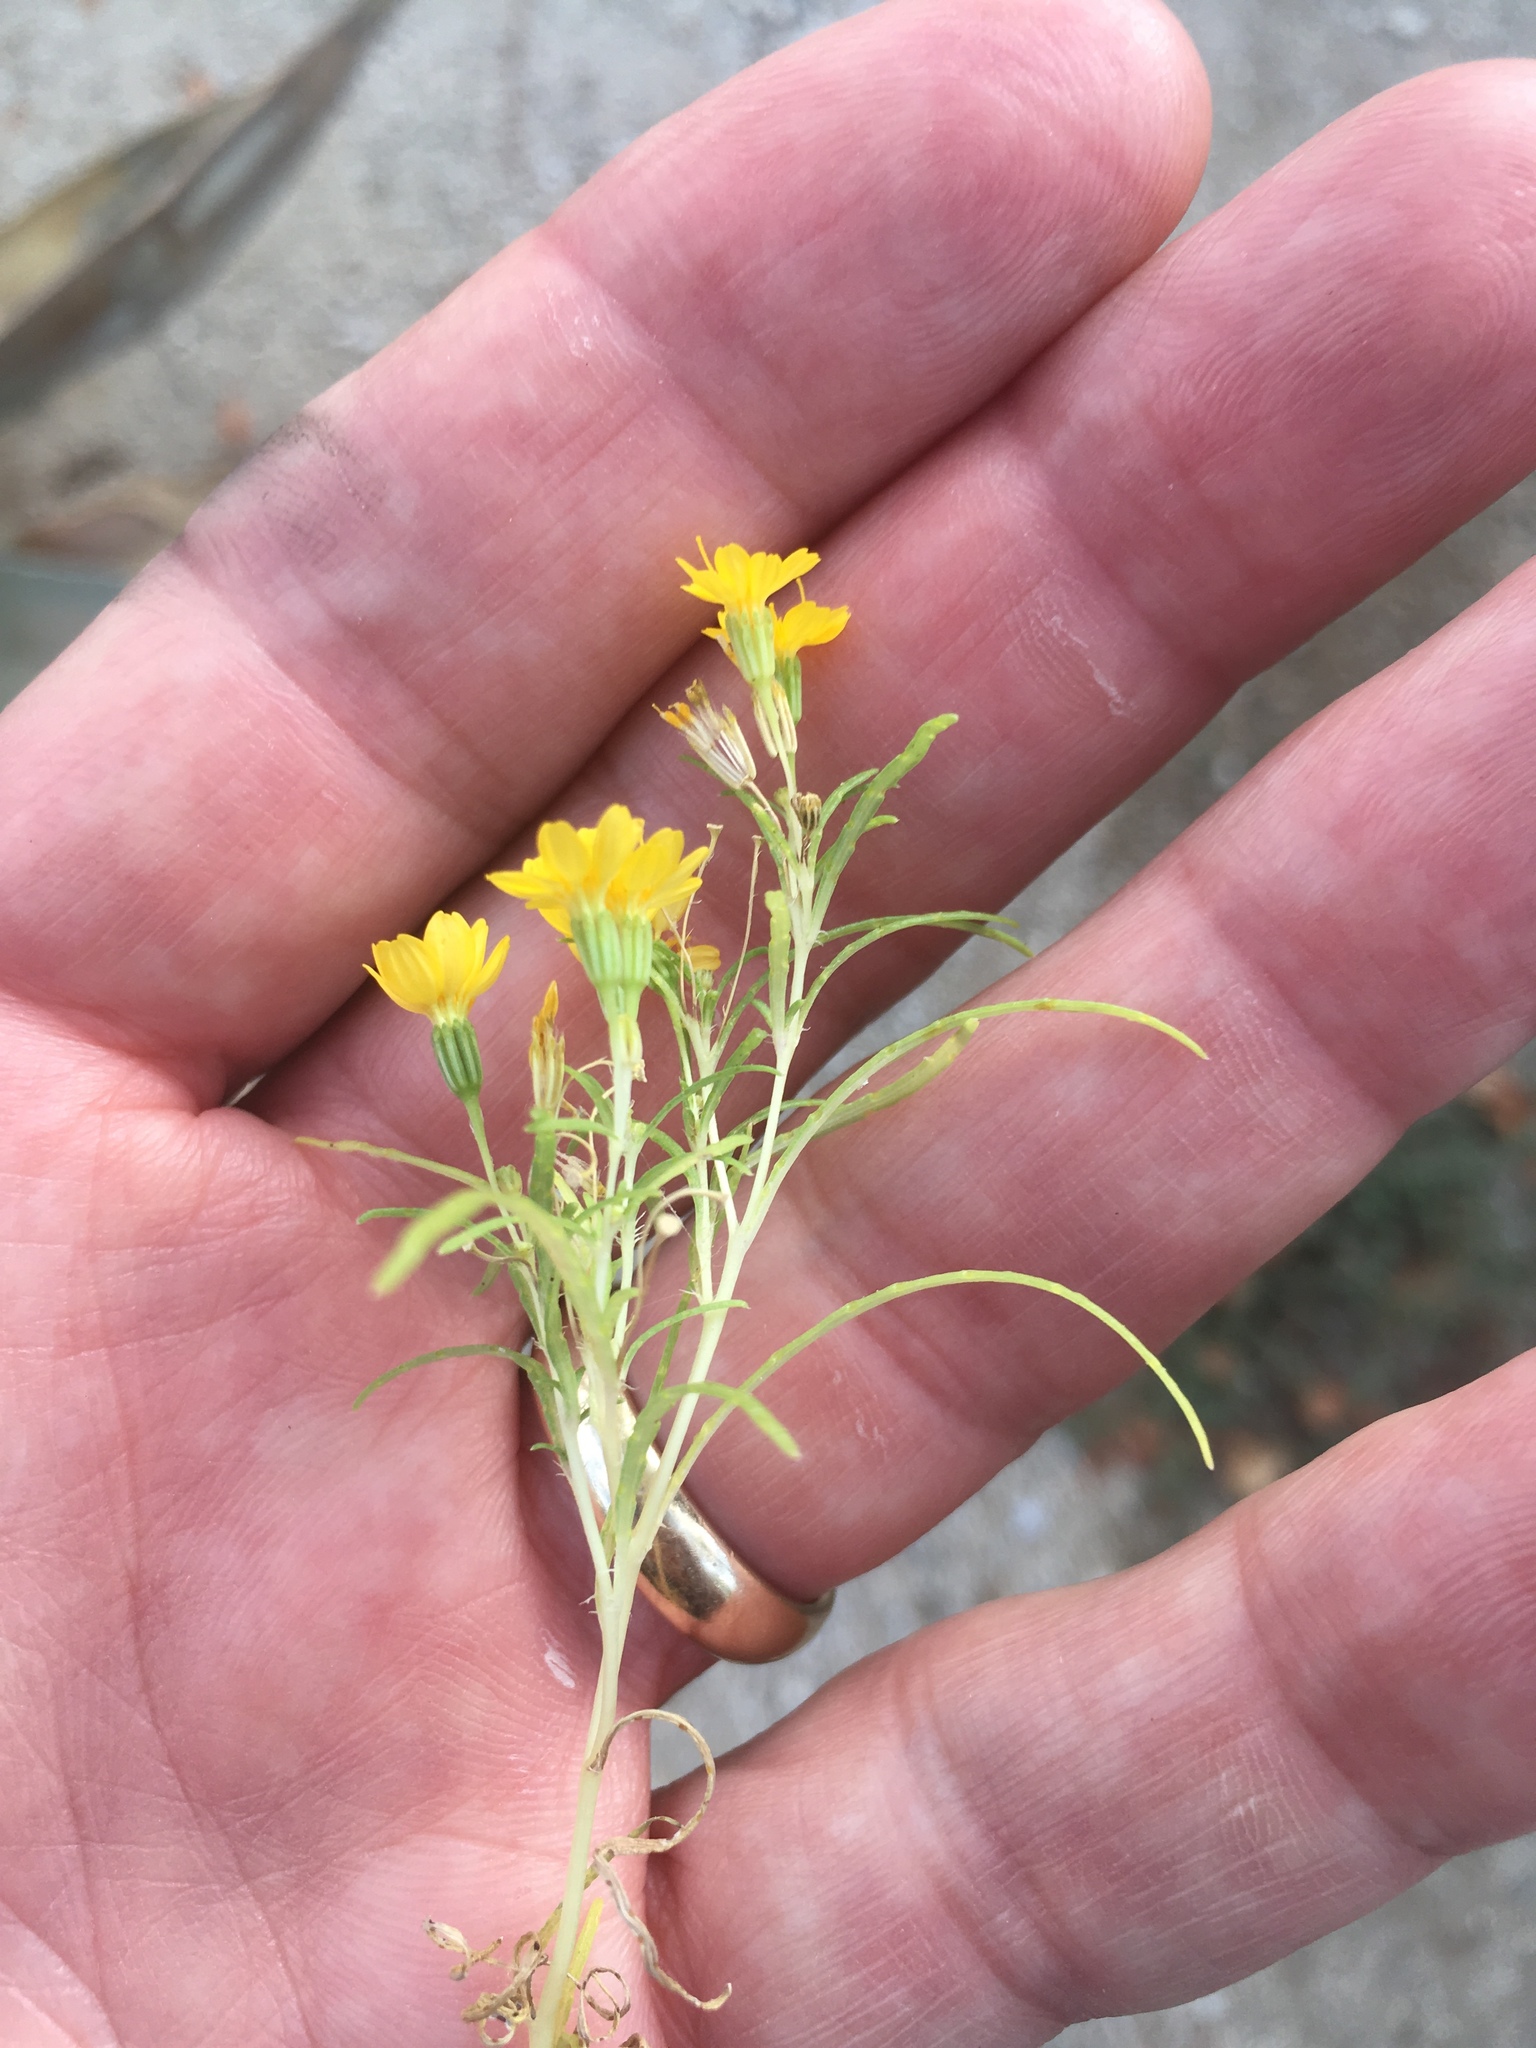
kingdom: Plantae
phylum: Tracheophyta
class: Magnoliopsida
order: Asterales
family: Asteraceae
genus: Pectis
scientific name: Pectis papposa
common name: Many-bristle chinchweed
